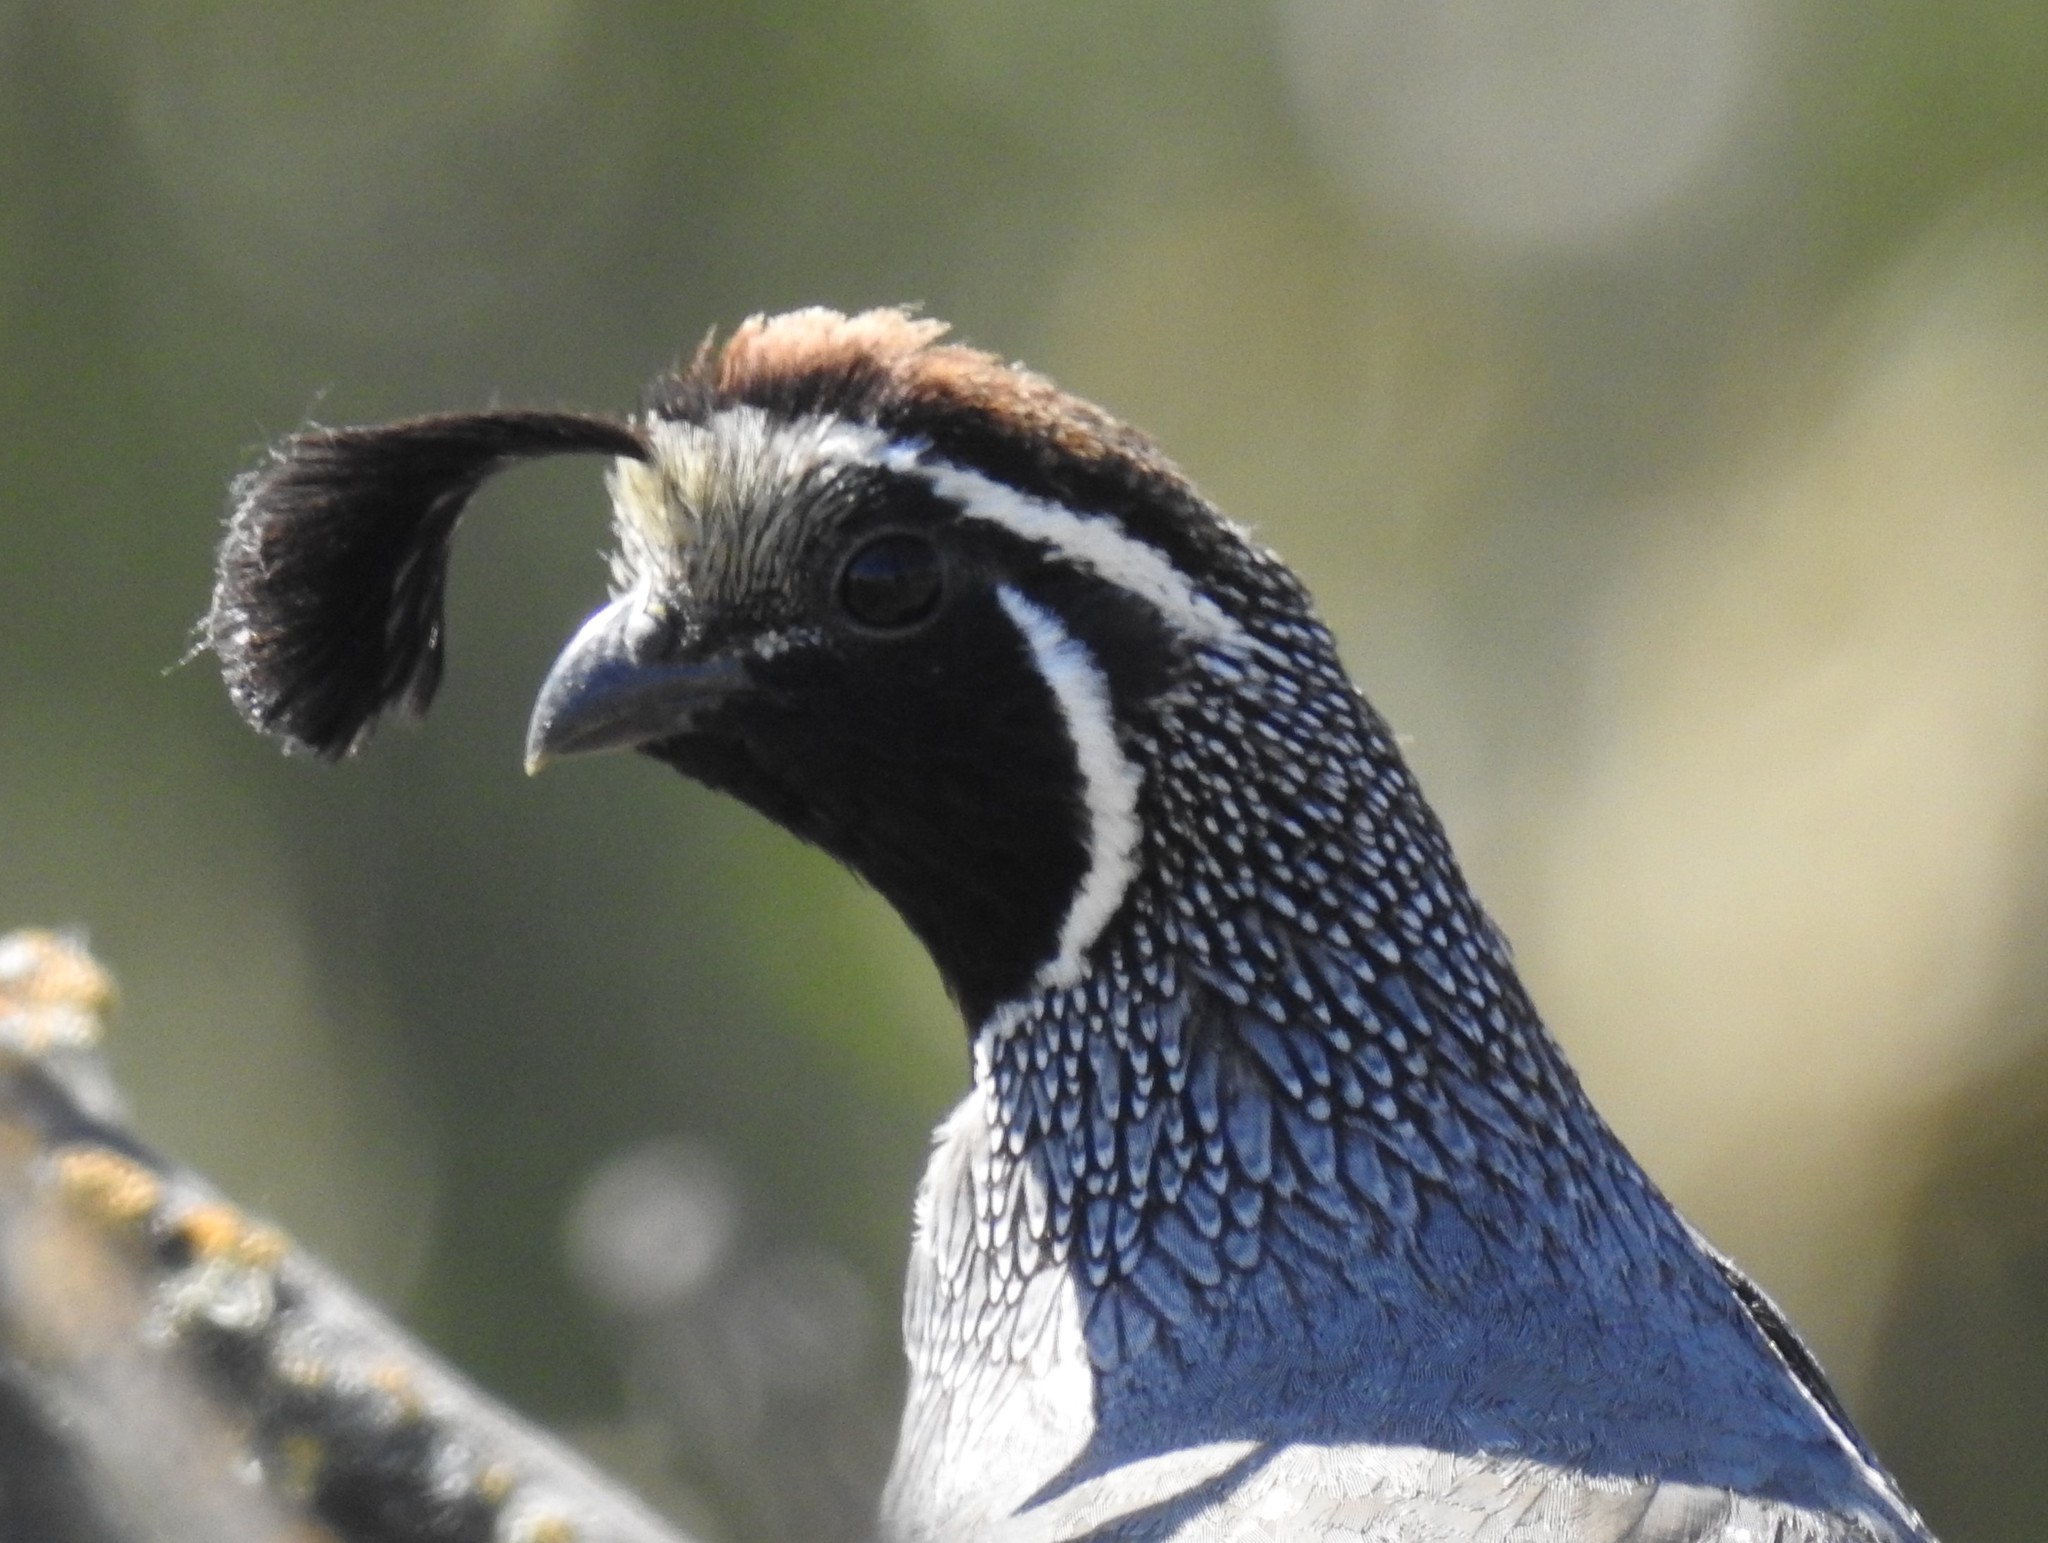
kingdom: Animalia
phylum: Chordata
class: Aves
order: Galliformes
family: Odontophoridae
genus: Callipepla
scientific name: Callipepla californica
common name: California quail
